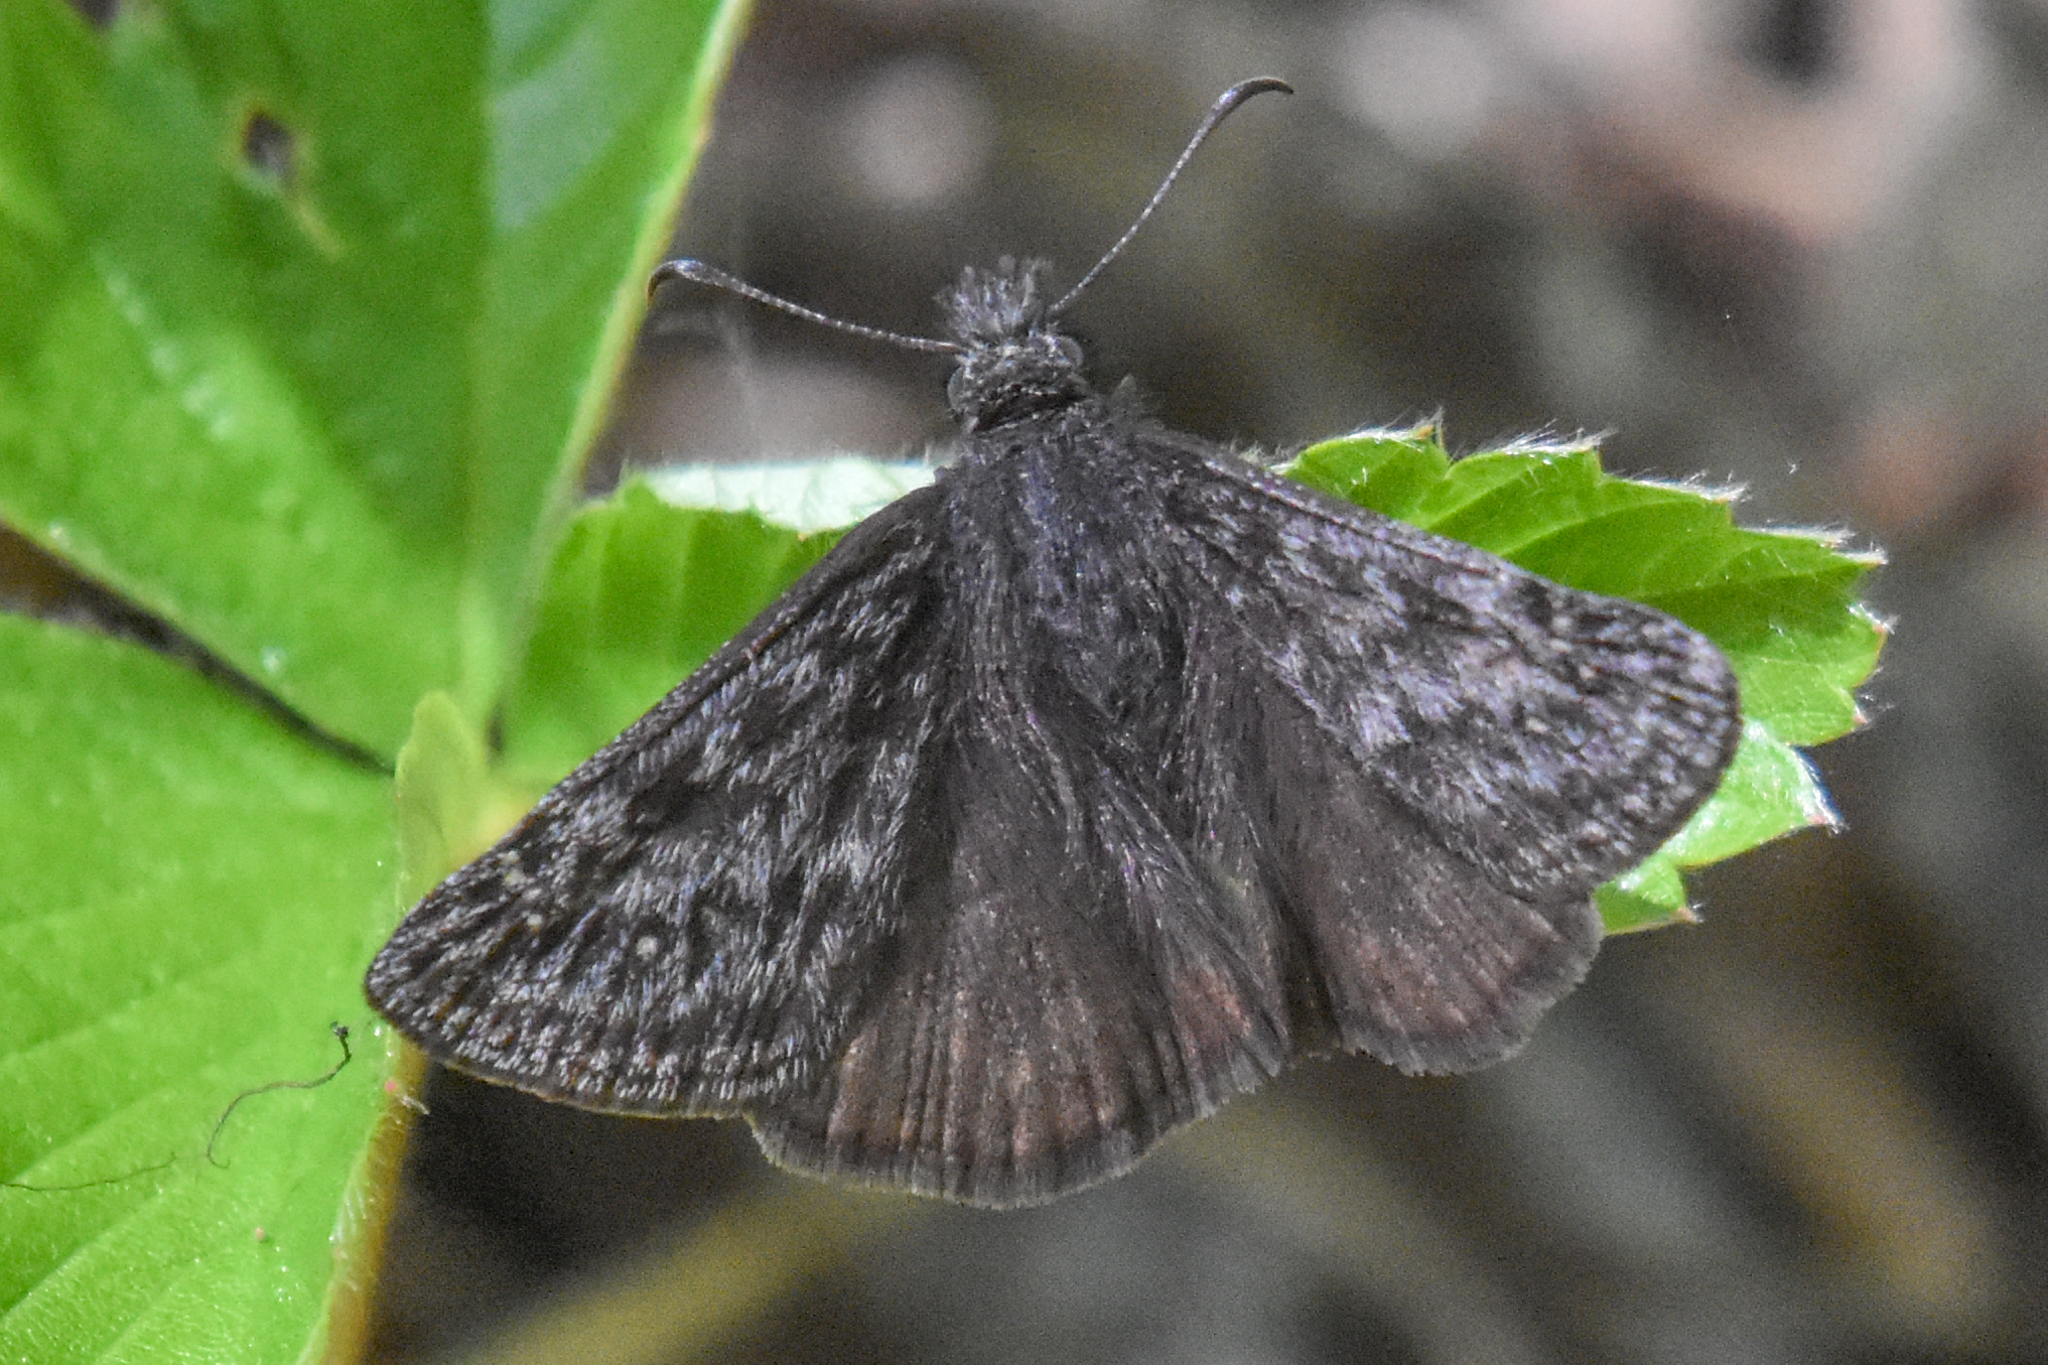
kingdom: Animalia
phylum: Arthropoda
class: Insecta
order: Lepidoptera
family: Hesperiidae
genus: Erynnis
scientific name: Erynnis propertius
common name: Propertius duskywing
